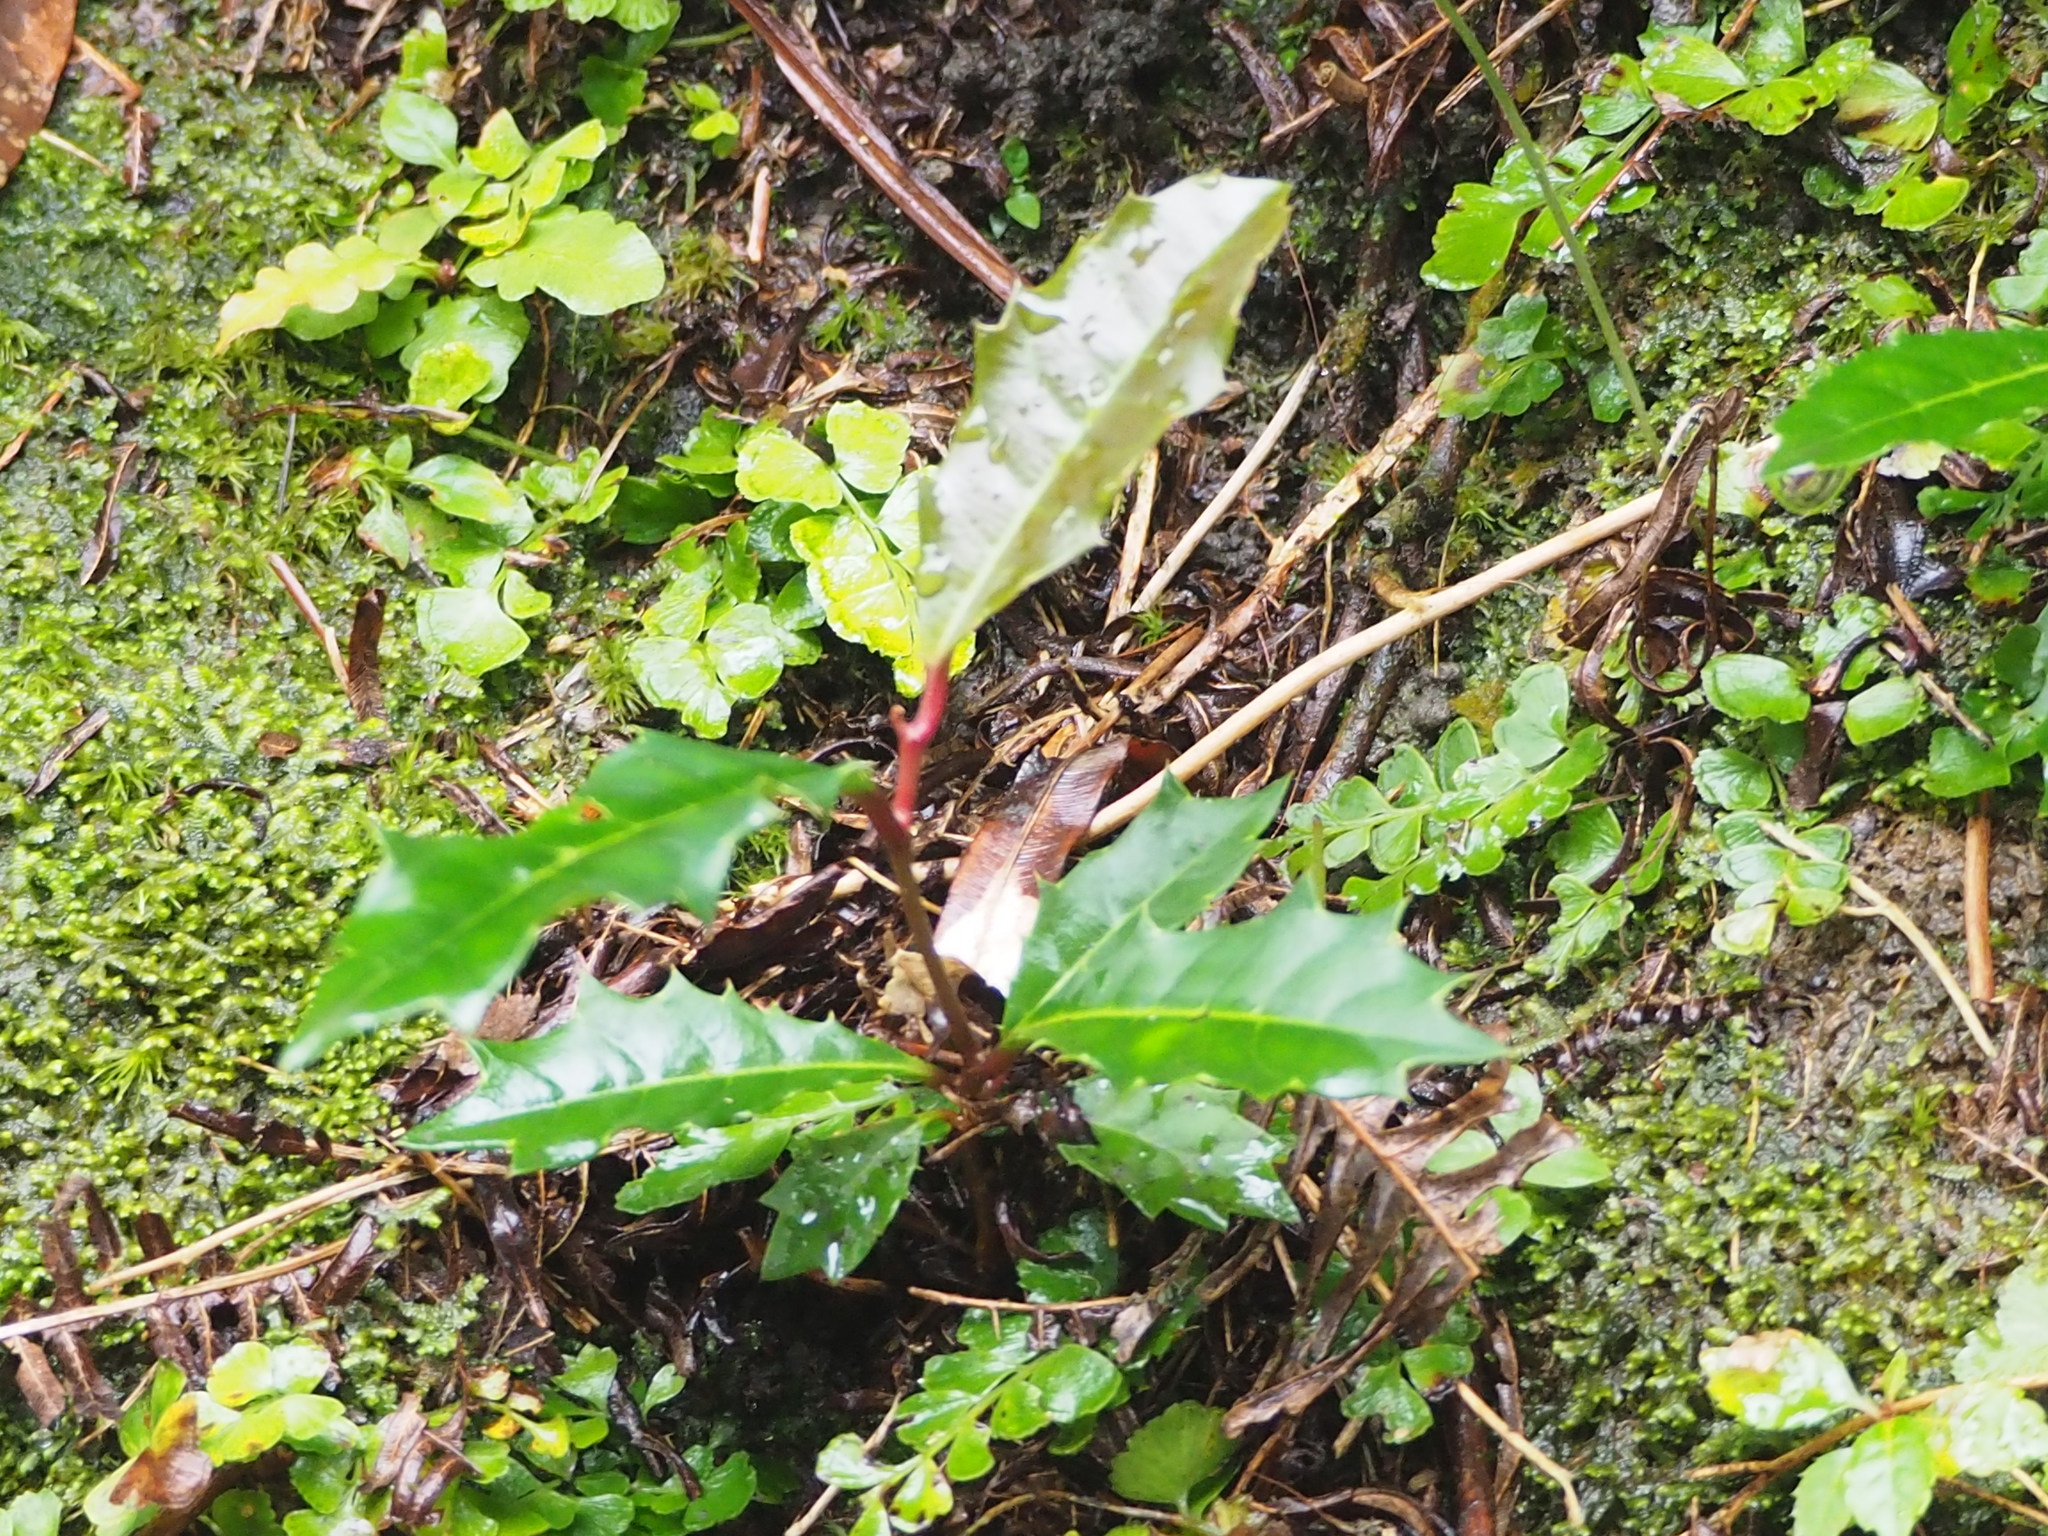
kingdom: Plantae
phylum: Tracheophyta
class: Magnoliopsida
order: Saxifragales
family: Iteaceae
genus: Itea
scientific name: Itea oldhamii
